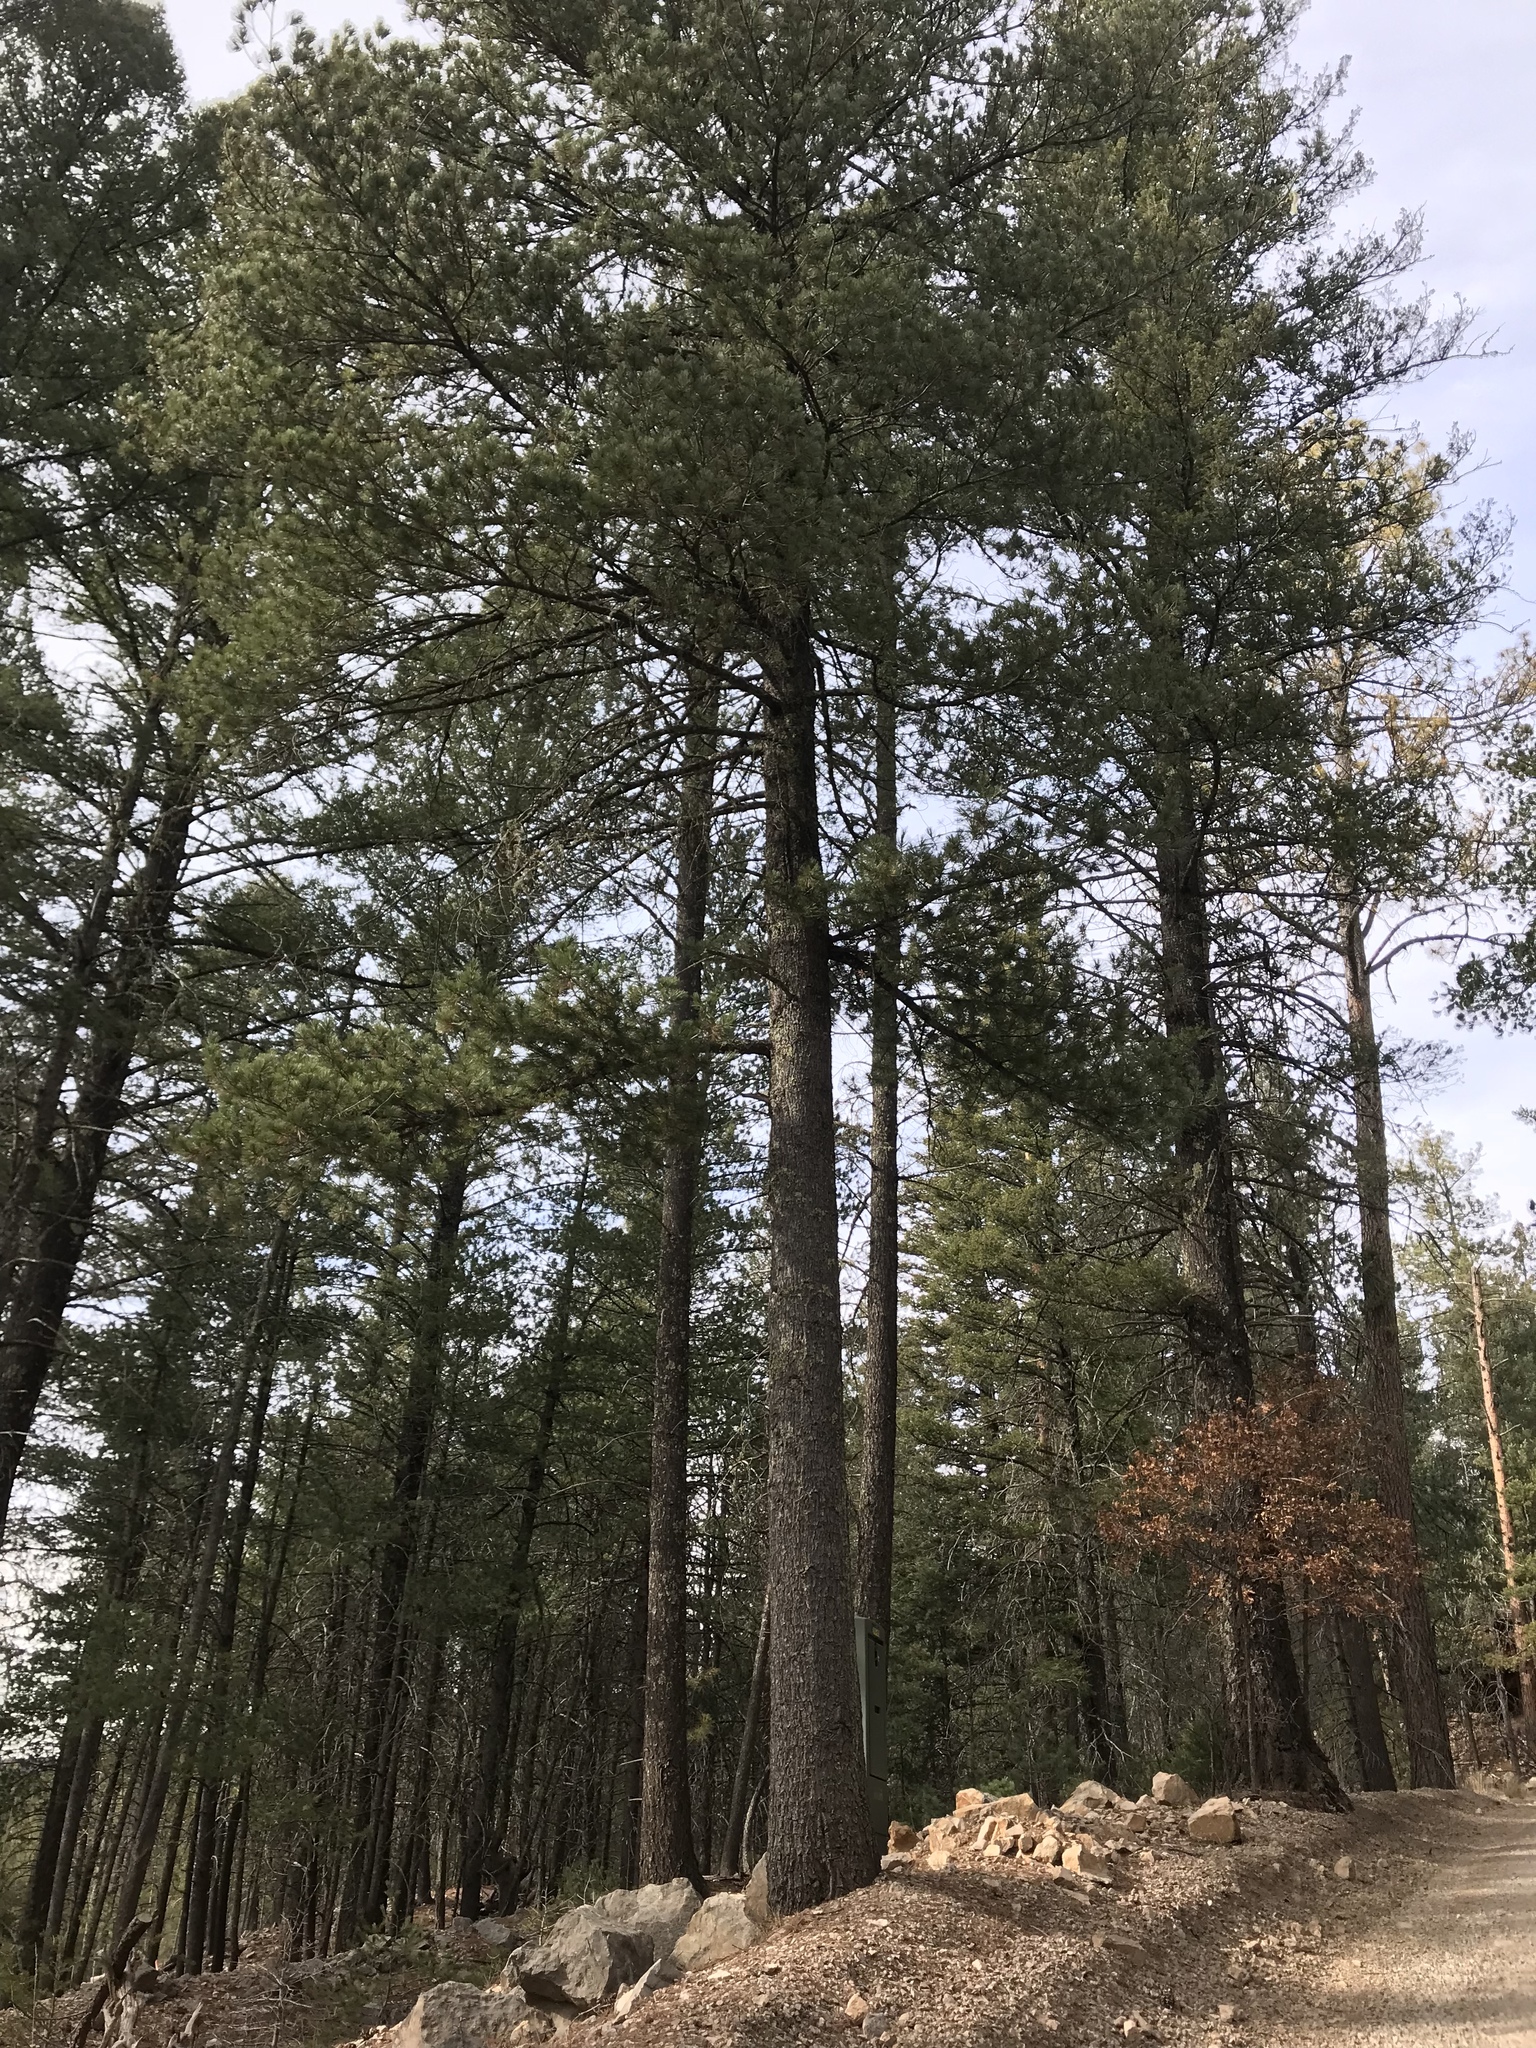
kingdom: Plantae
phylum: Tracheophyta
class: Pinopsida
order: Pinales
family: Pinaceae
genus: Pinus
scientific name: Pinus strobiformis
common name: Southwestern white pine
